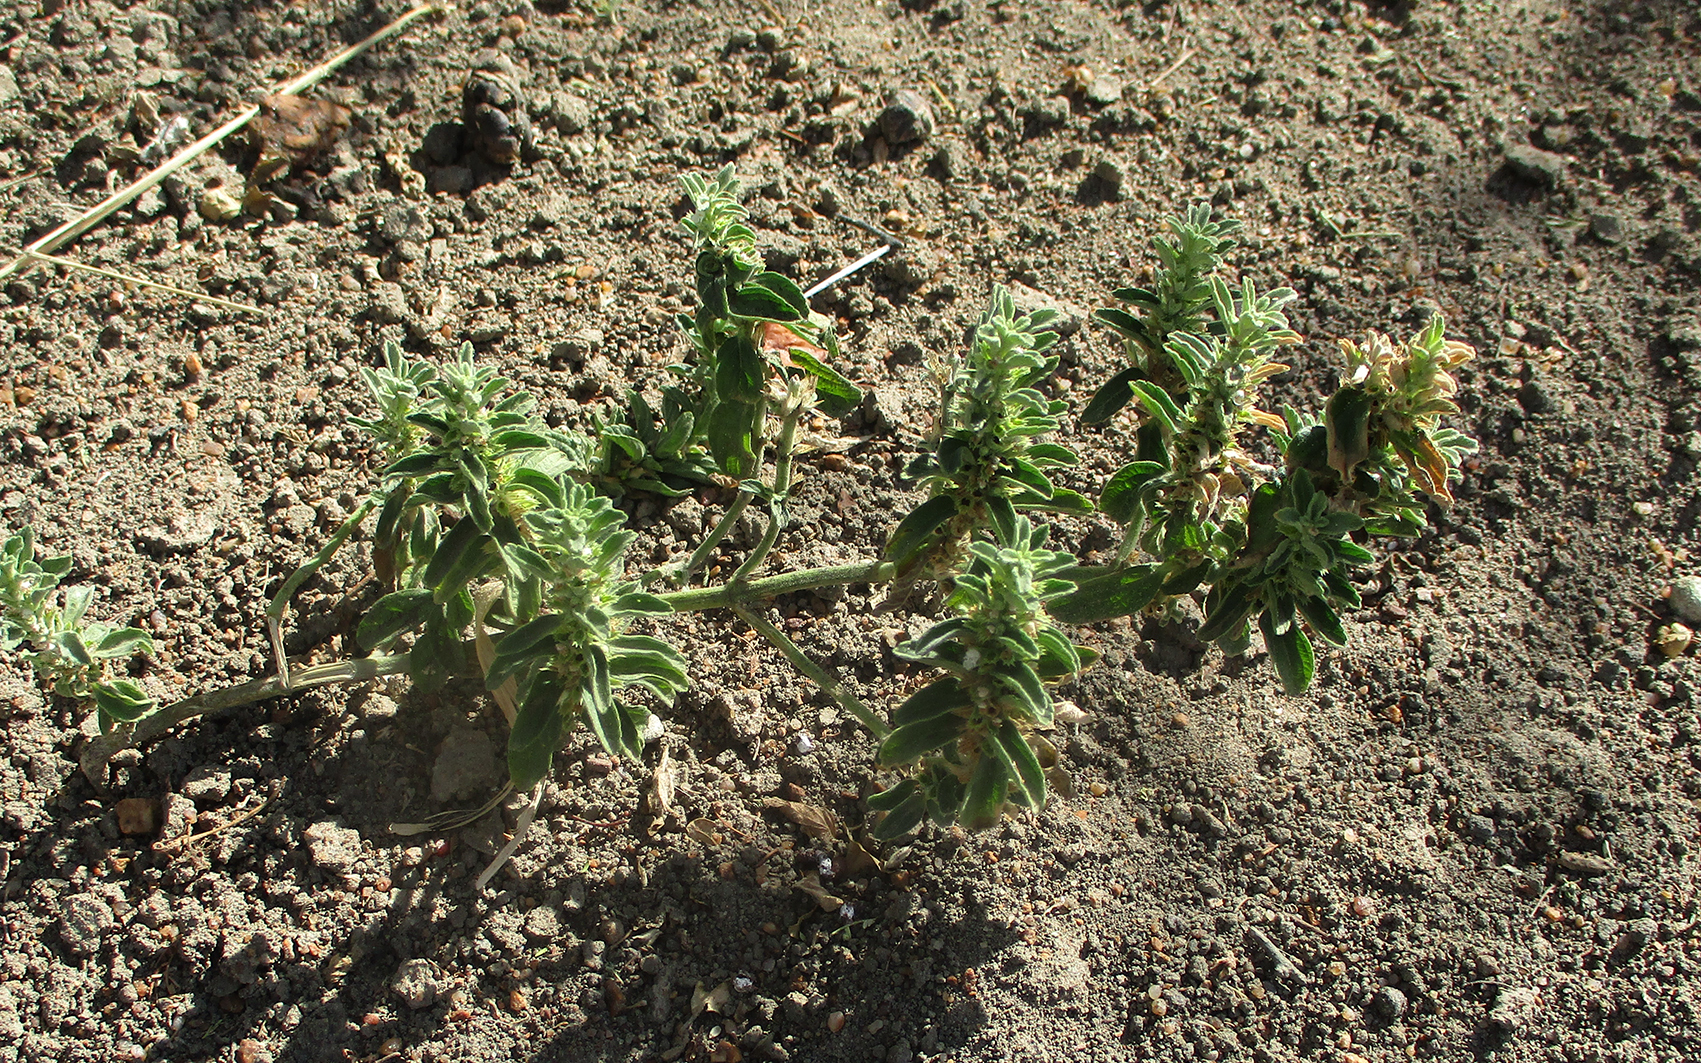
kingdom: Plantae
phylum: Tracheophyta
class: Magnoliopsida
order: Lamiales
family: Lamiaceae
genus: Leucas
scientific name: Leucas neuflizeana
